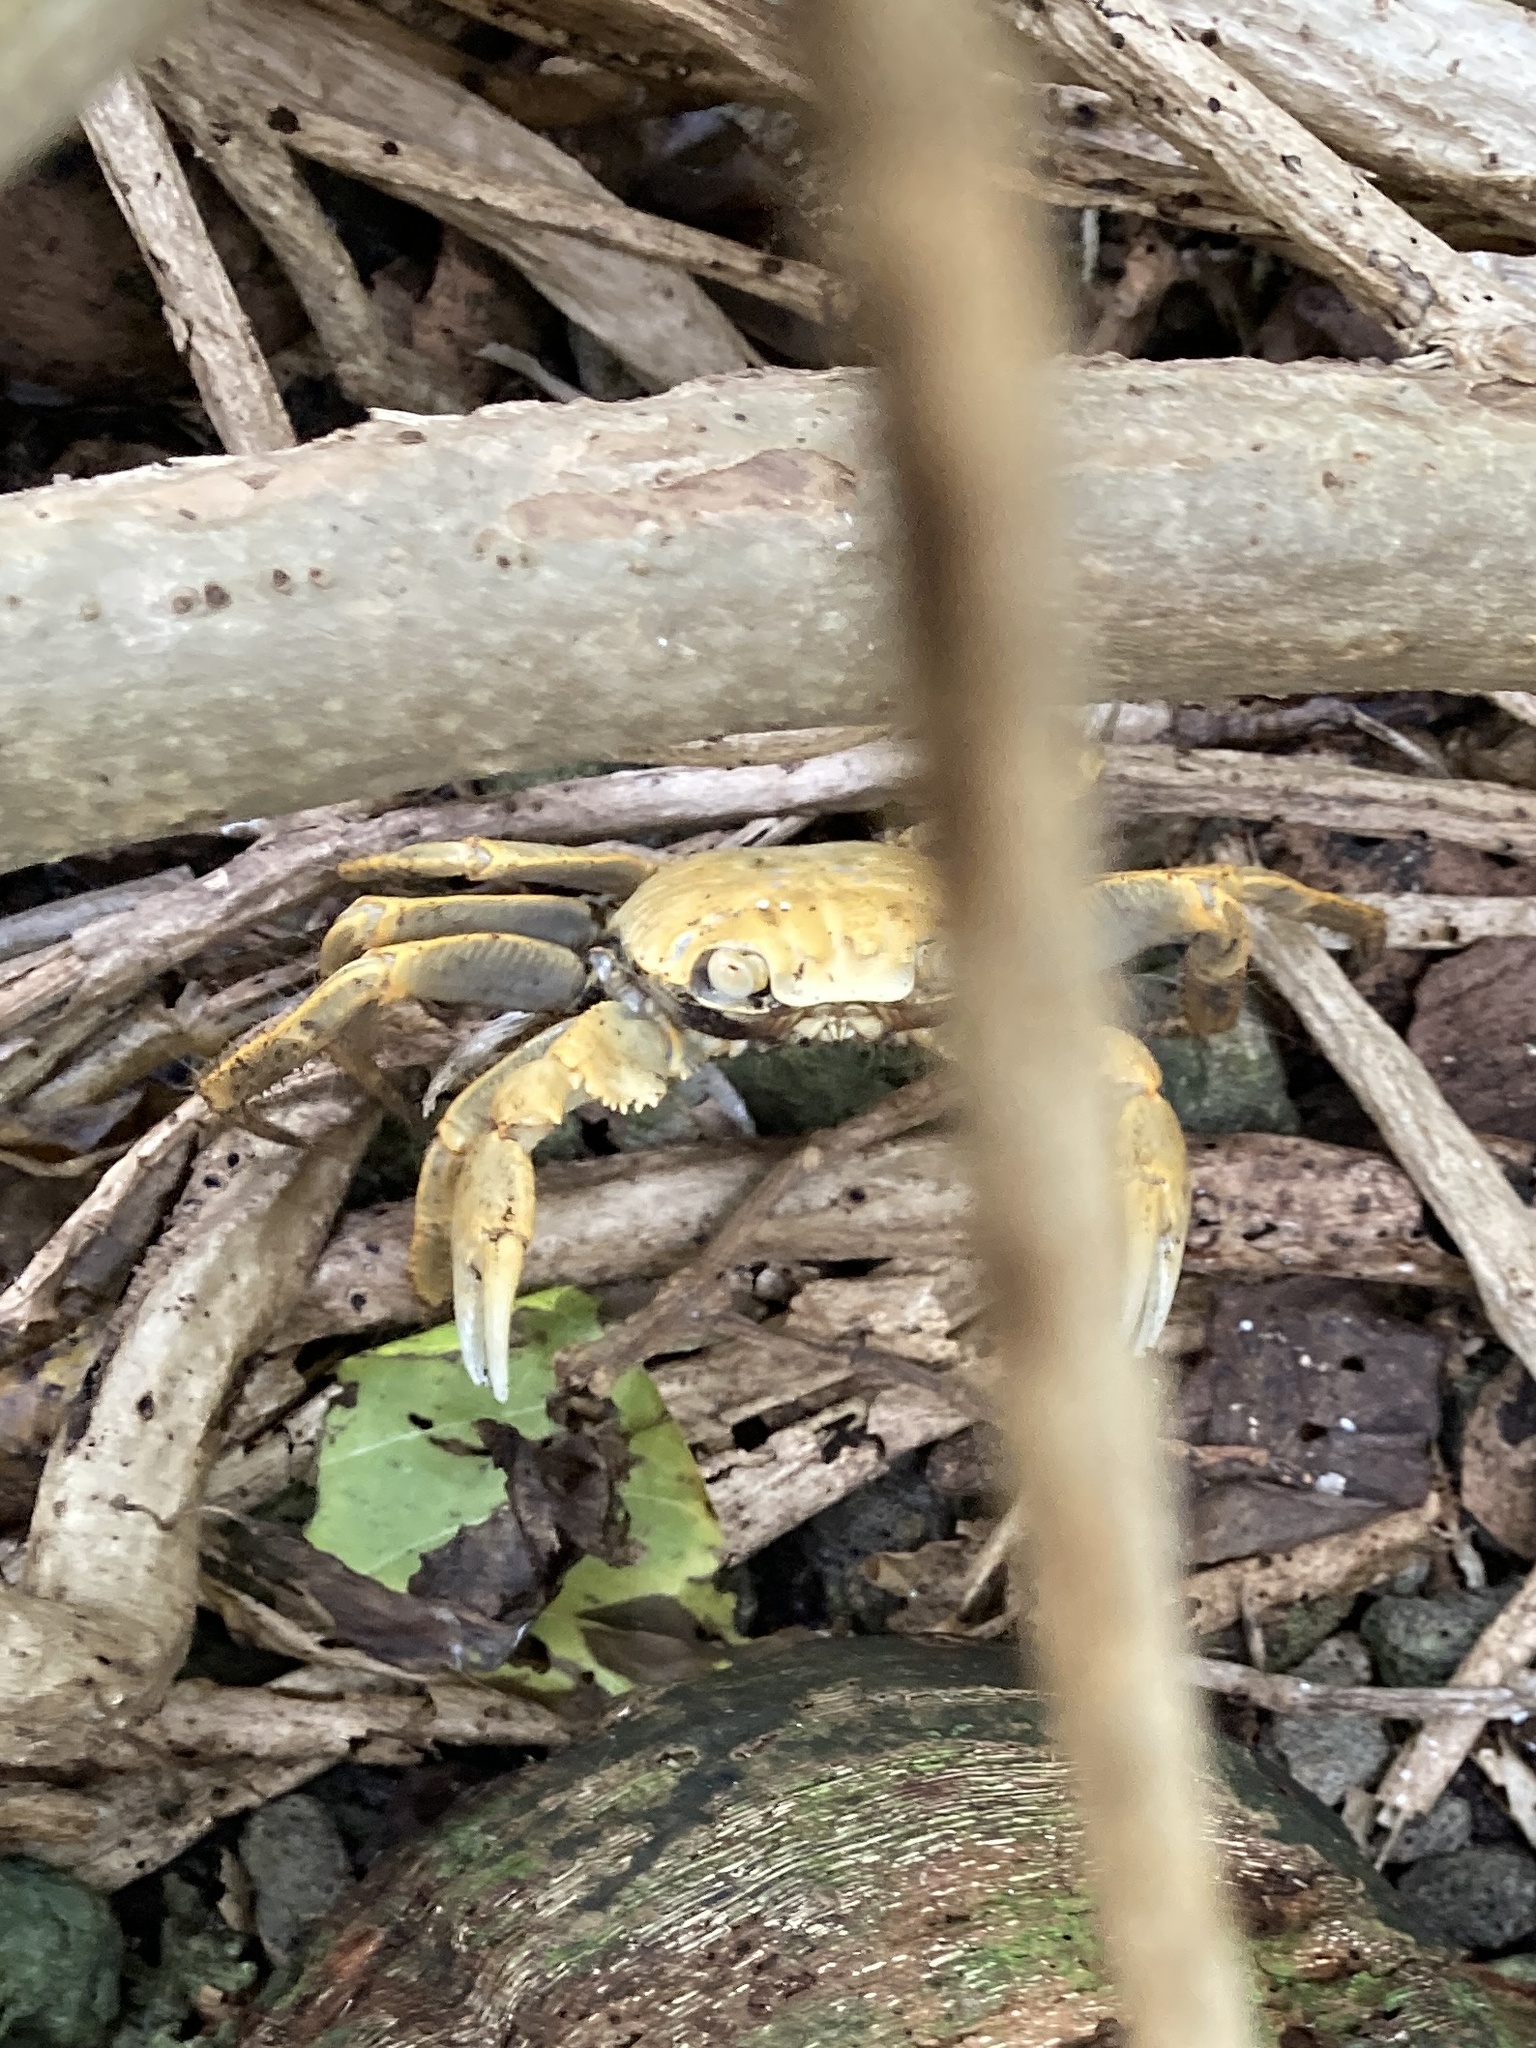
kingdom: Animalia
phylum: Arthropoda
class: Malacostraca
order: Decapoda
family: Grapsidae
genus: Geograpsus
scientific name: Geograpsus crinipes
